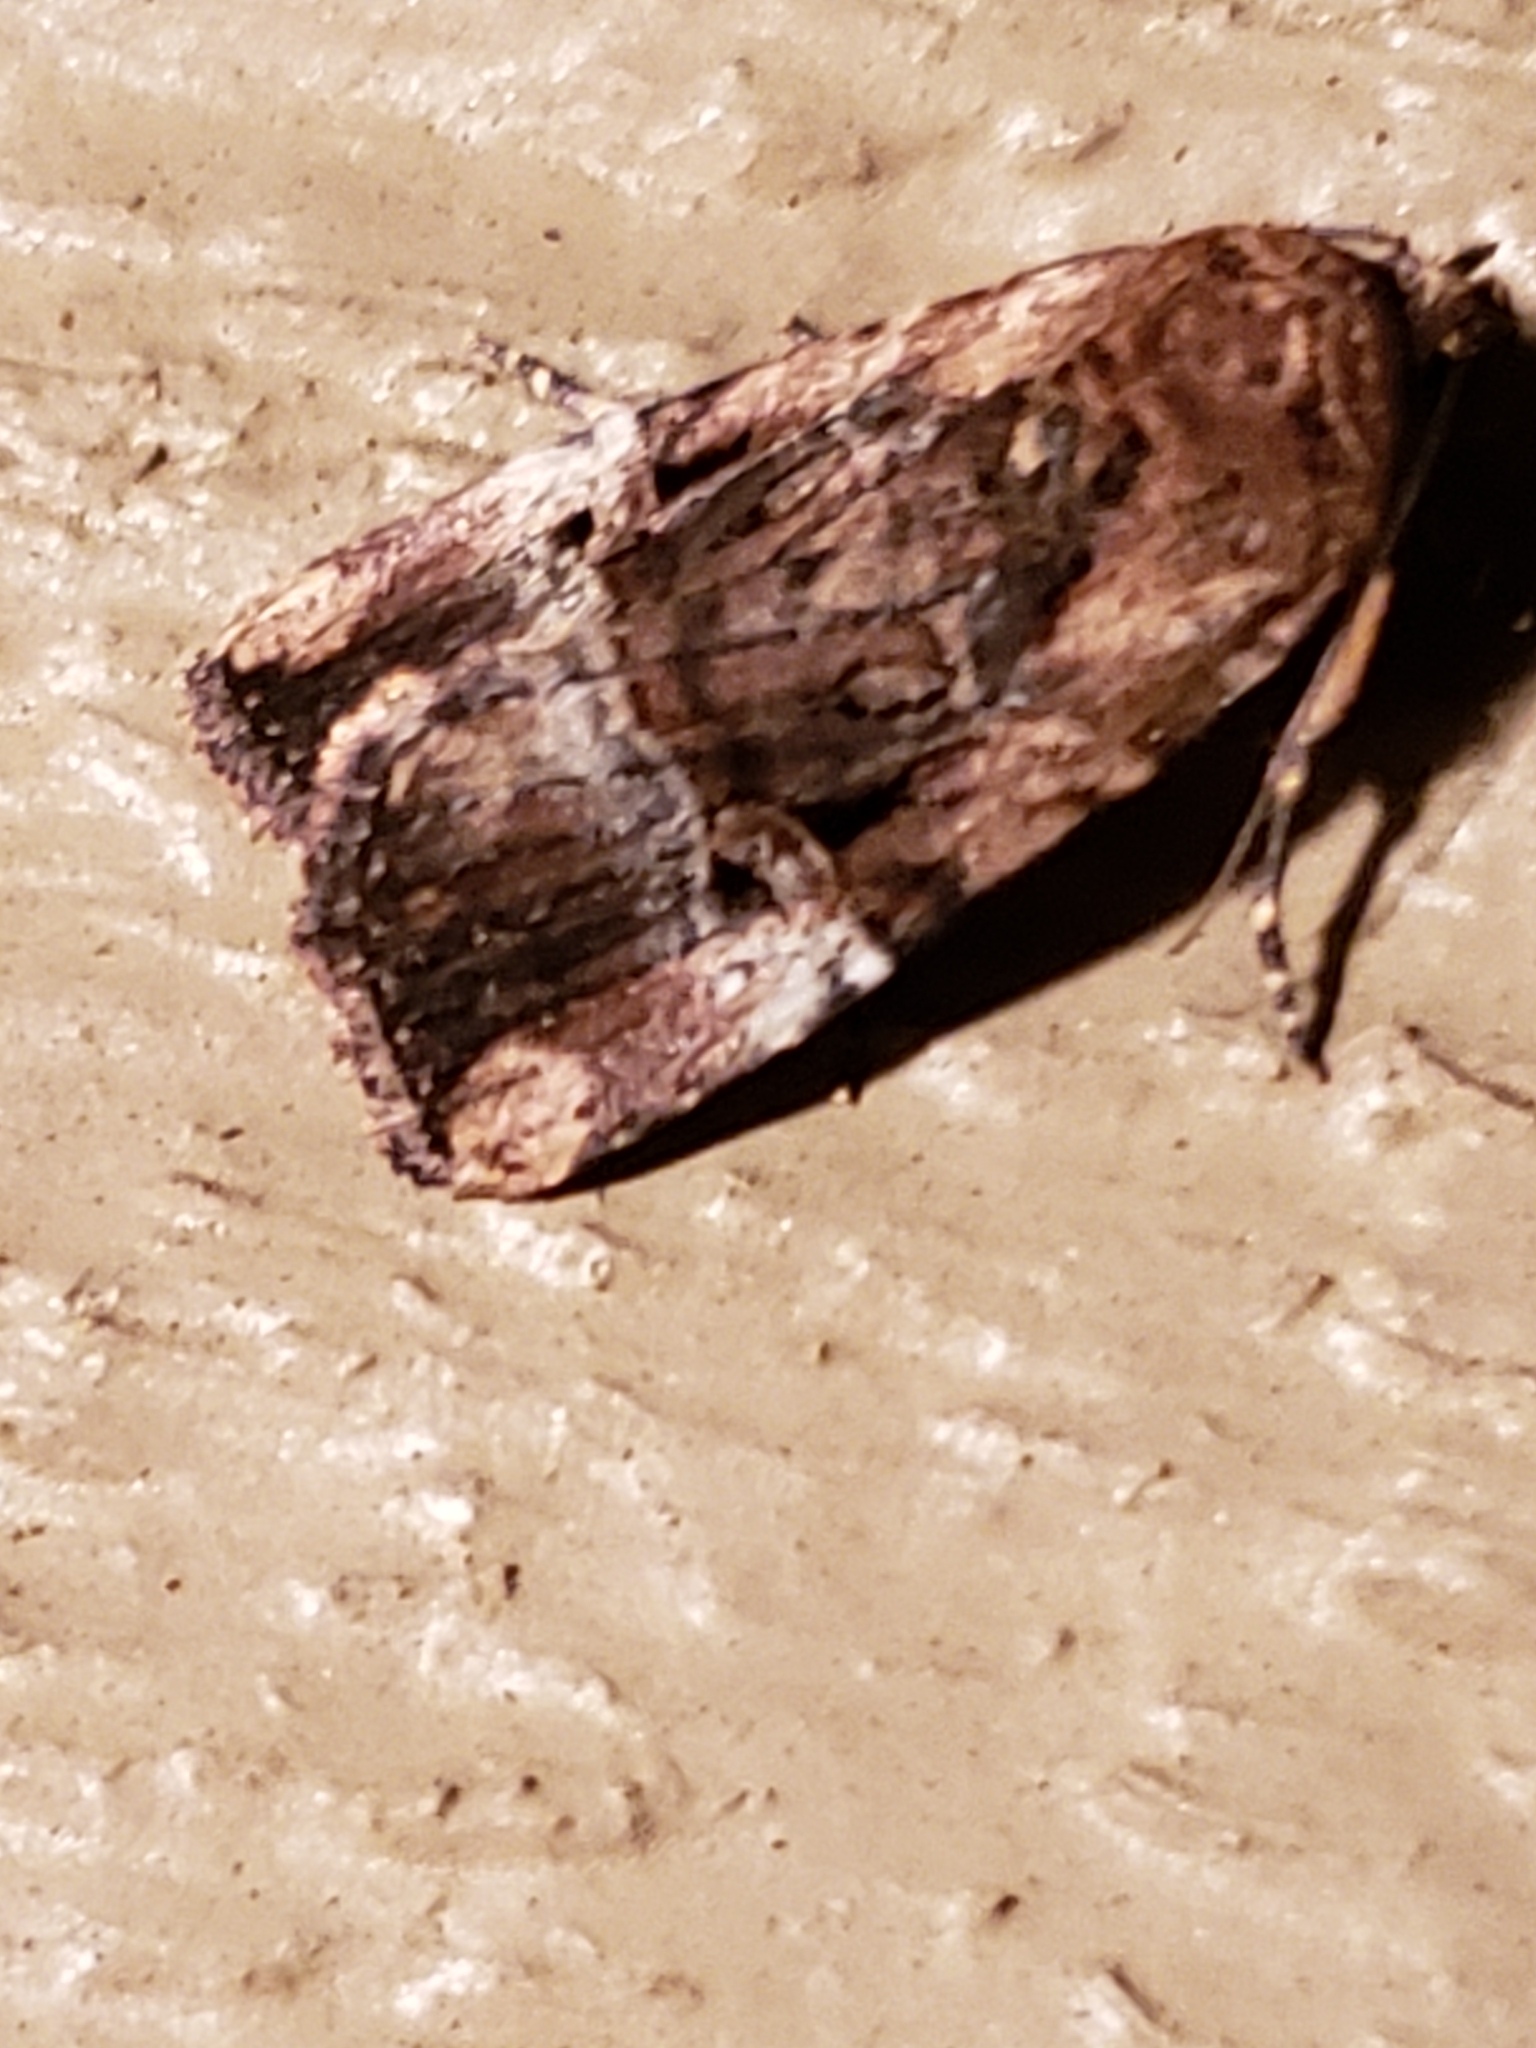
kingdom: Animalia
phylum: Arthropoda
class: Insecta
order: Lepidoptera
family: Noctuidae
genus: Elaphria
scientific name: Elaphria chalcedonia
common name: Chalcedony midget
